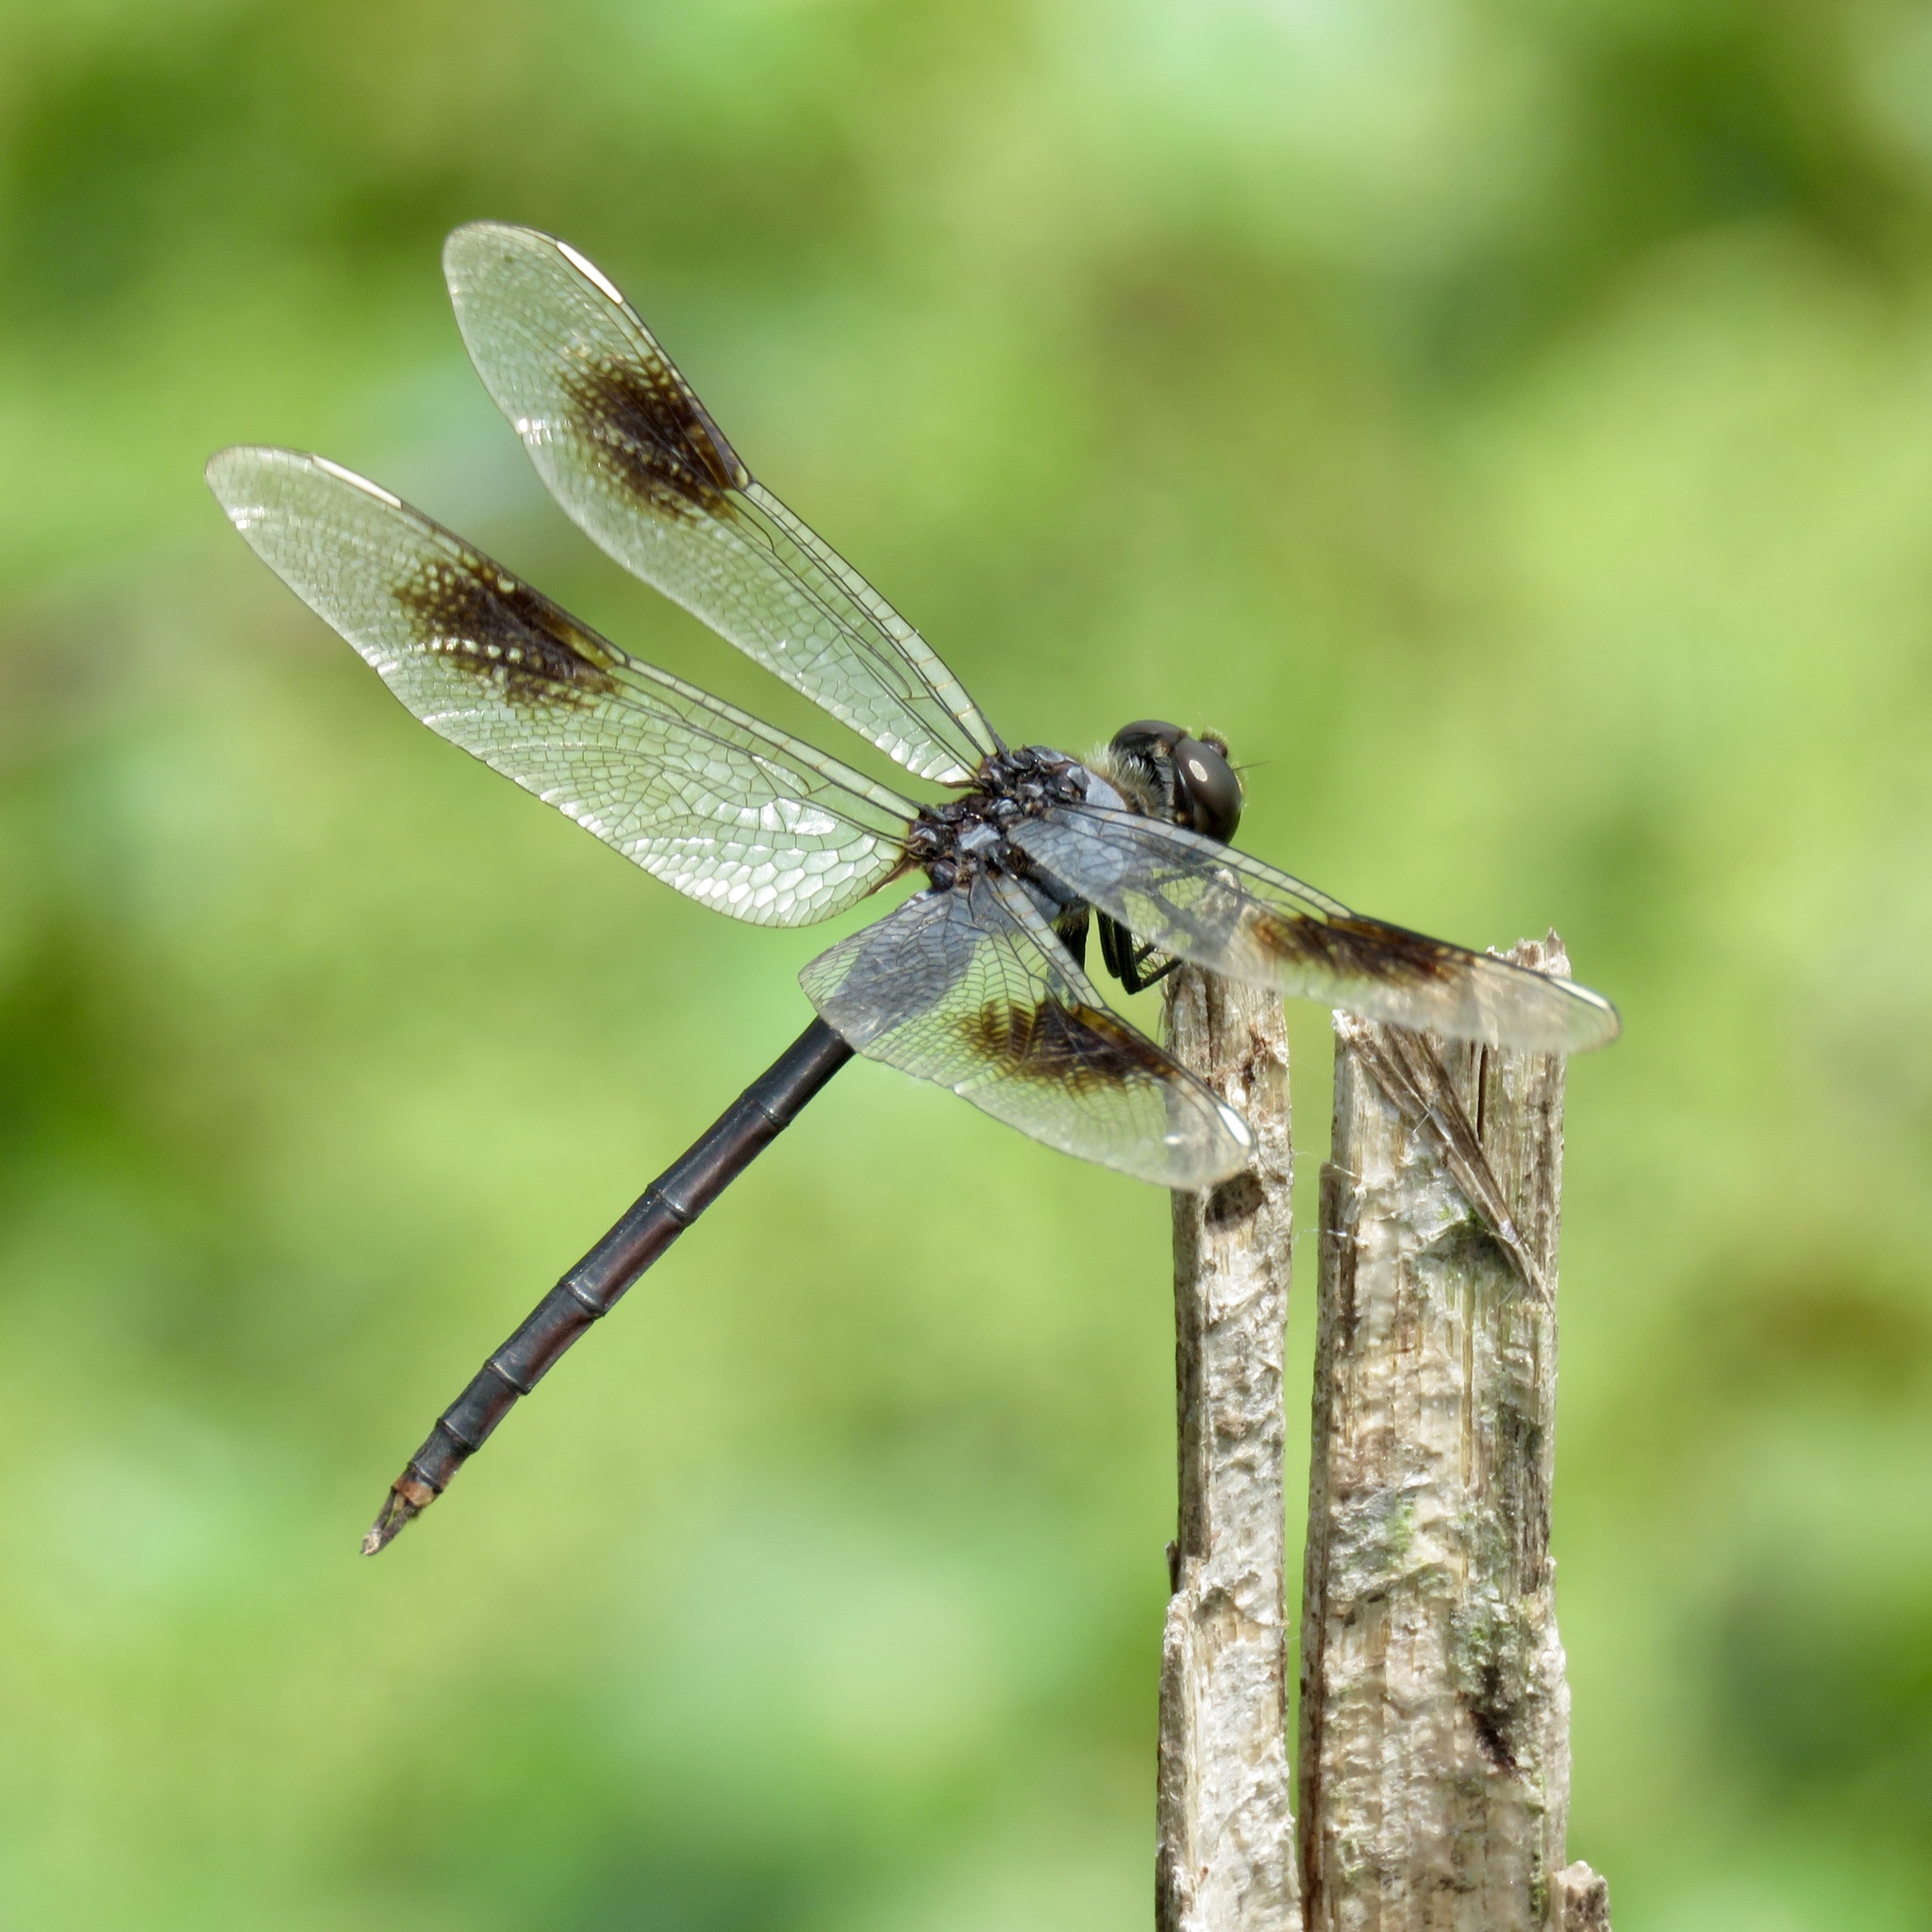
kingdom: Animalia
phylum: Arthropoda
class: Insecta
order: Odonata
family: Libellulidae
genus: Brachymesia
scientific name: Brachymesia gravida
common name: Four-spotted pennant
